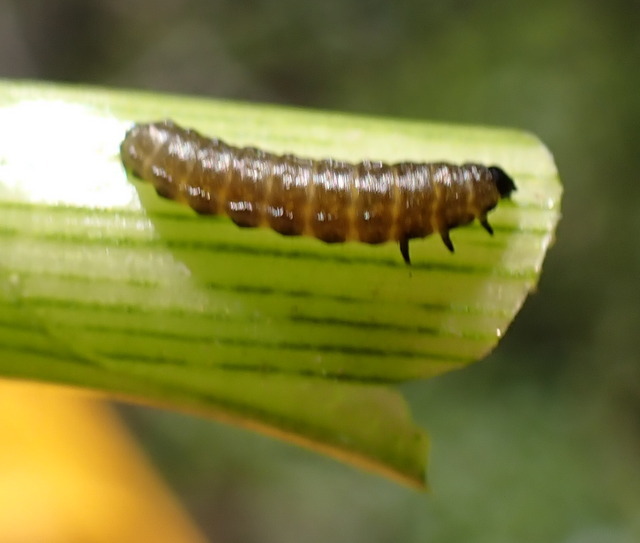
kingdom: Animalia
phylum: Arthropoda
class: Insecta
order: Coleoptera
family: Chrysomelidae
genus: Agasicles
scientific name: Agasicles hygrophila
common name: Alligatorweed flea beetle
